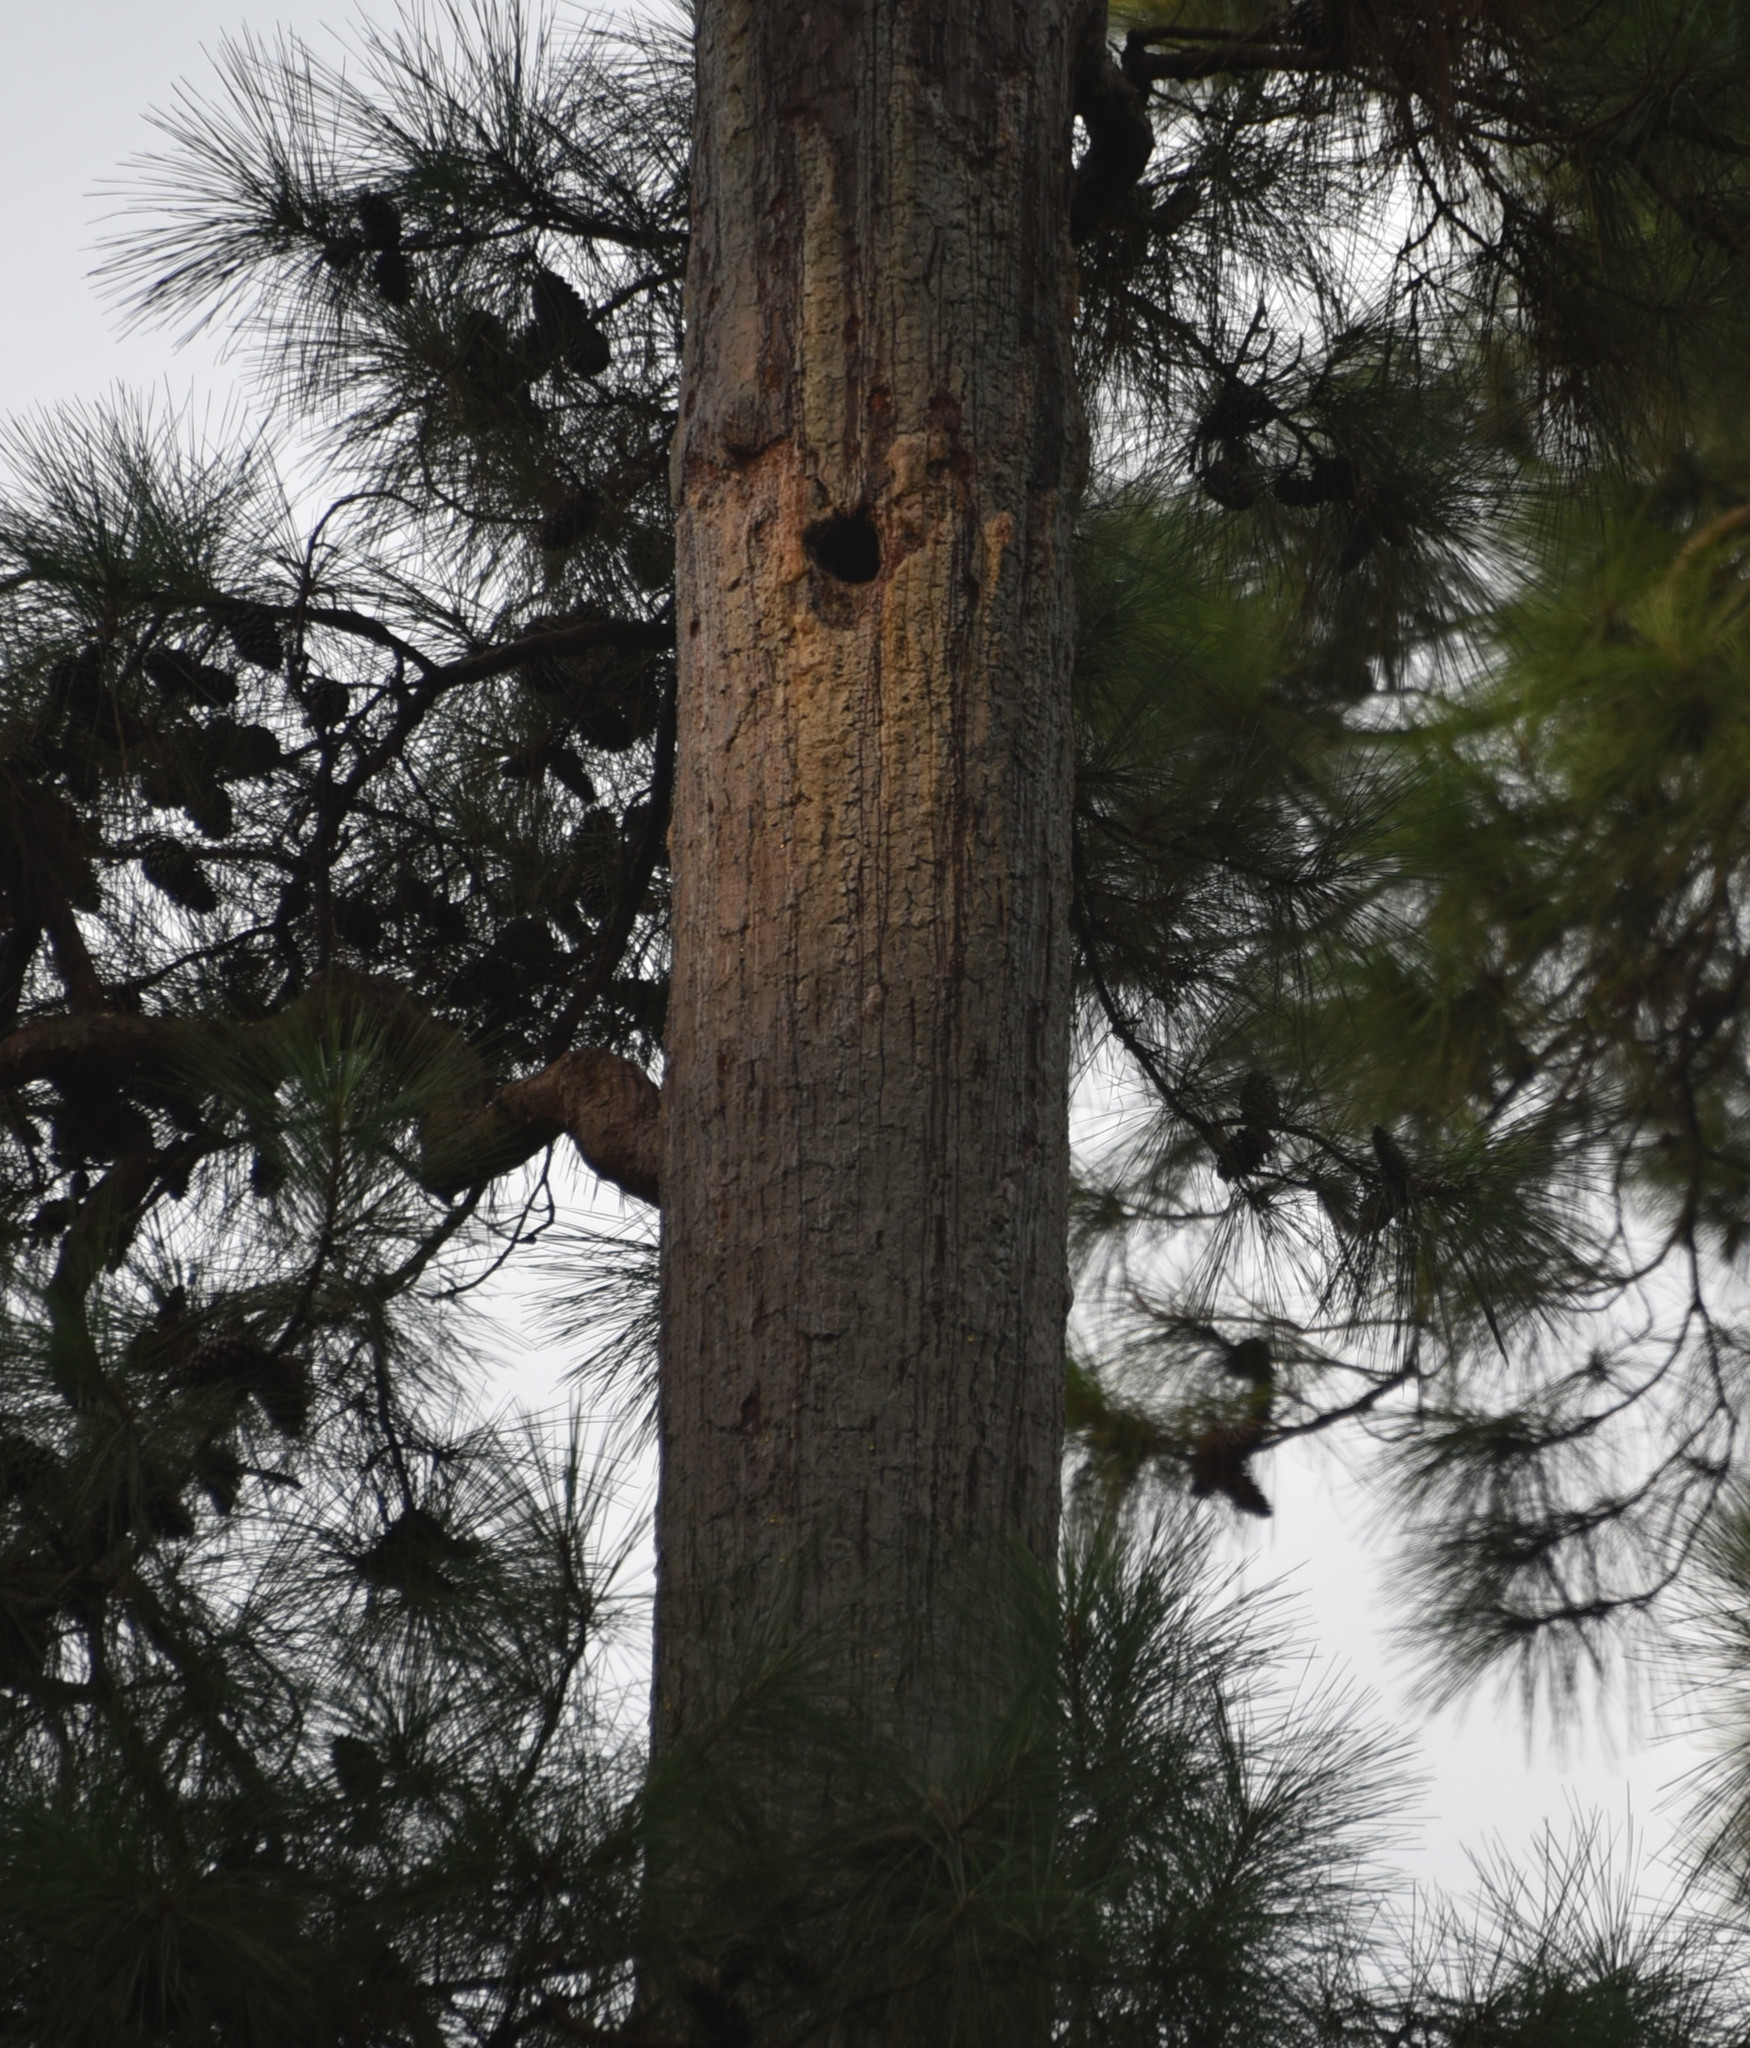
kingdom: Animalia
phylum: Chordata
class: Aves
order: Piciformes
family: Picidae
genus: Leuconotopicus
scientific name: Leuconotopicus borealis
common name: Red-cockaded woodpecker
